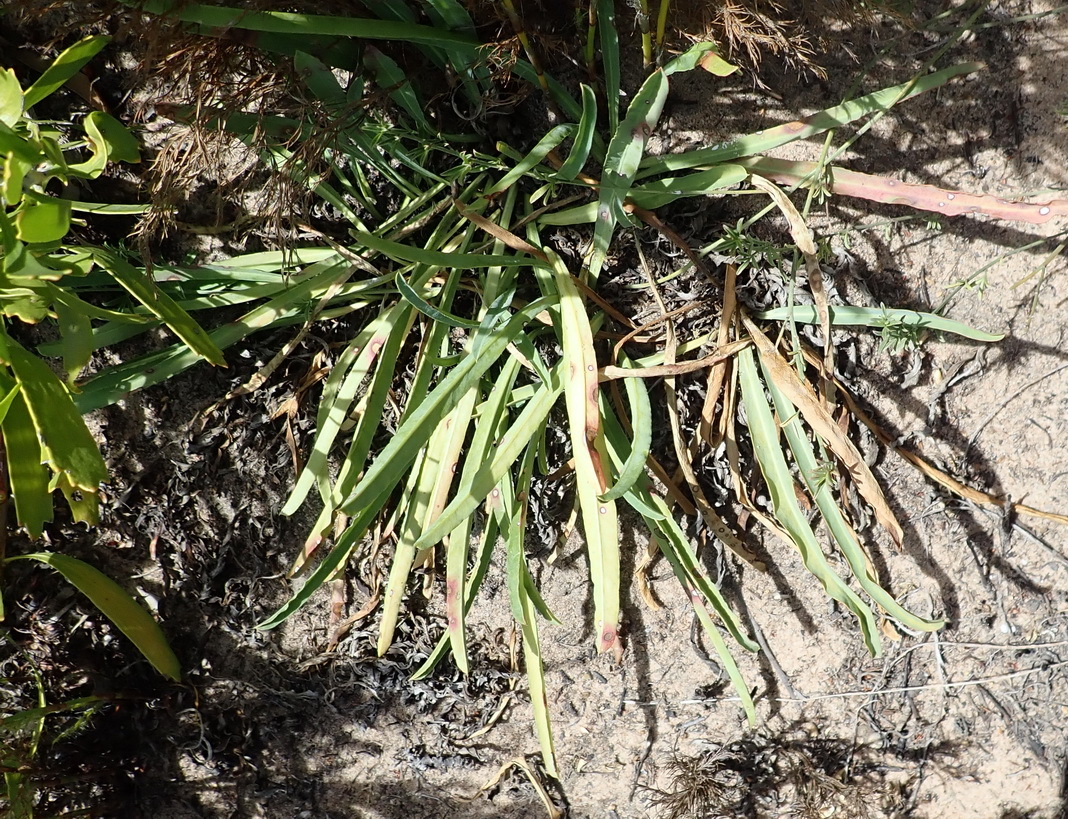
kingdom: Plantae
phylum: Tracheophyta
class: Magnoliopsida
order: Malpighiales
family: Euphorbiaceae
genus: Euphorbia
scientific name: Euphorbia silenifolia
